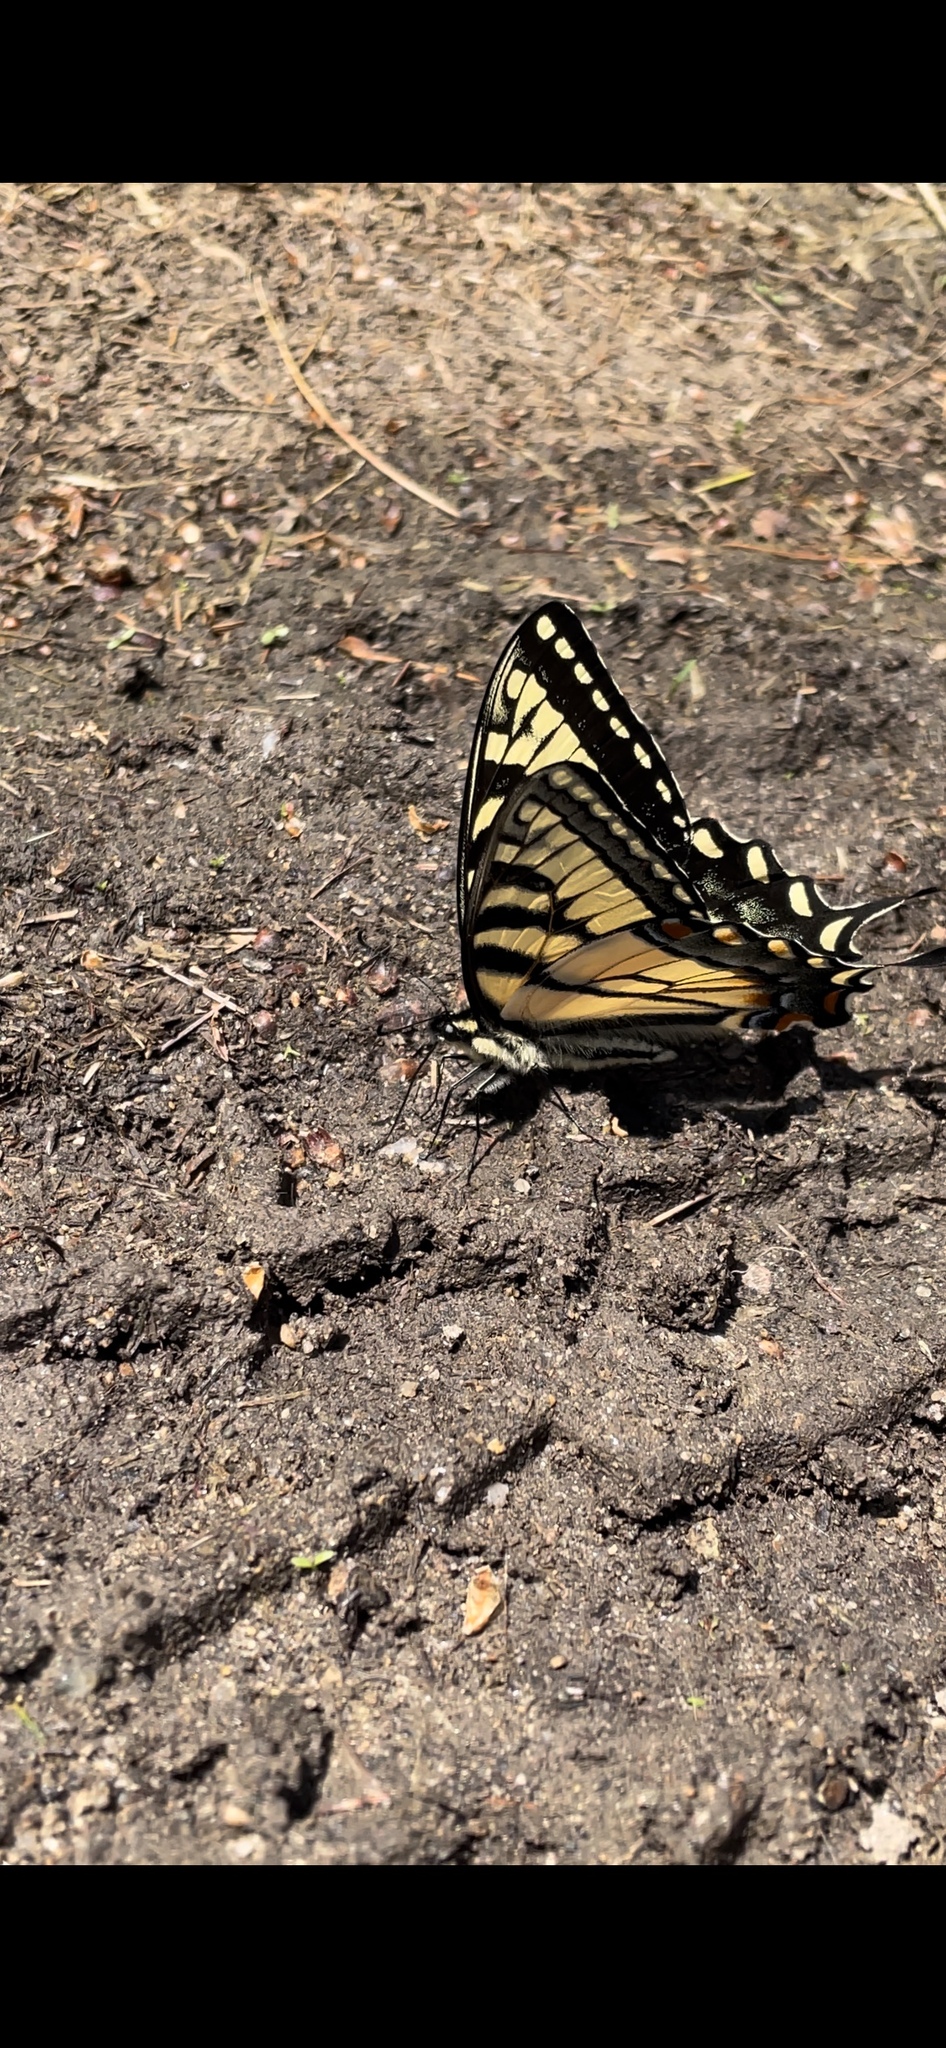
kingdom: Animalia
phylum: Arthropoda
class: Insecta
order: Lepidoptera
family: Papilionidae
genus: Papilio
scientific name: Papilio glaucus
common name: Tiger swallowtail
